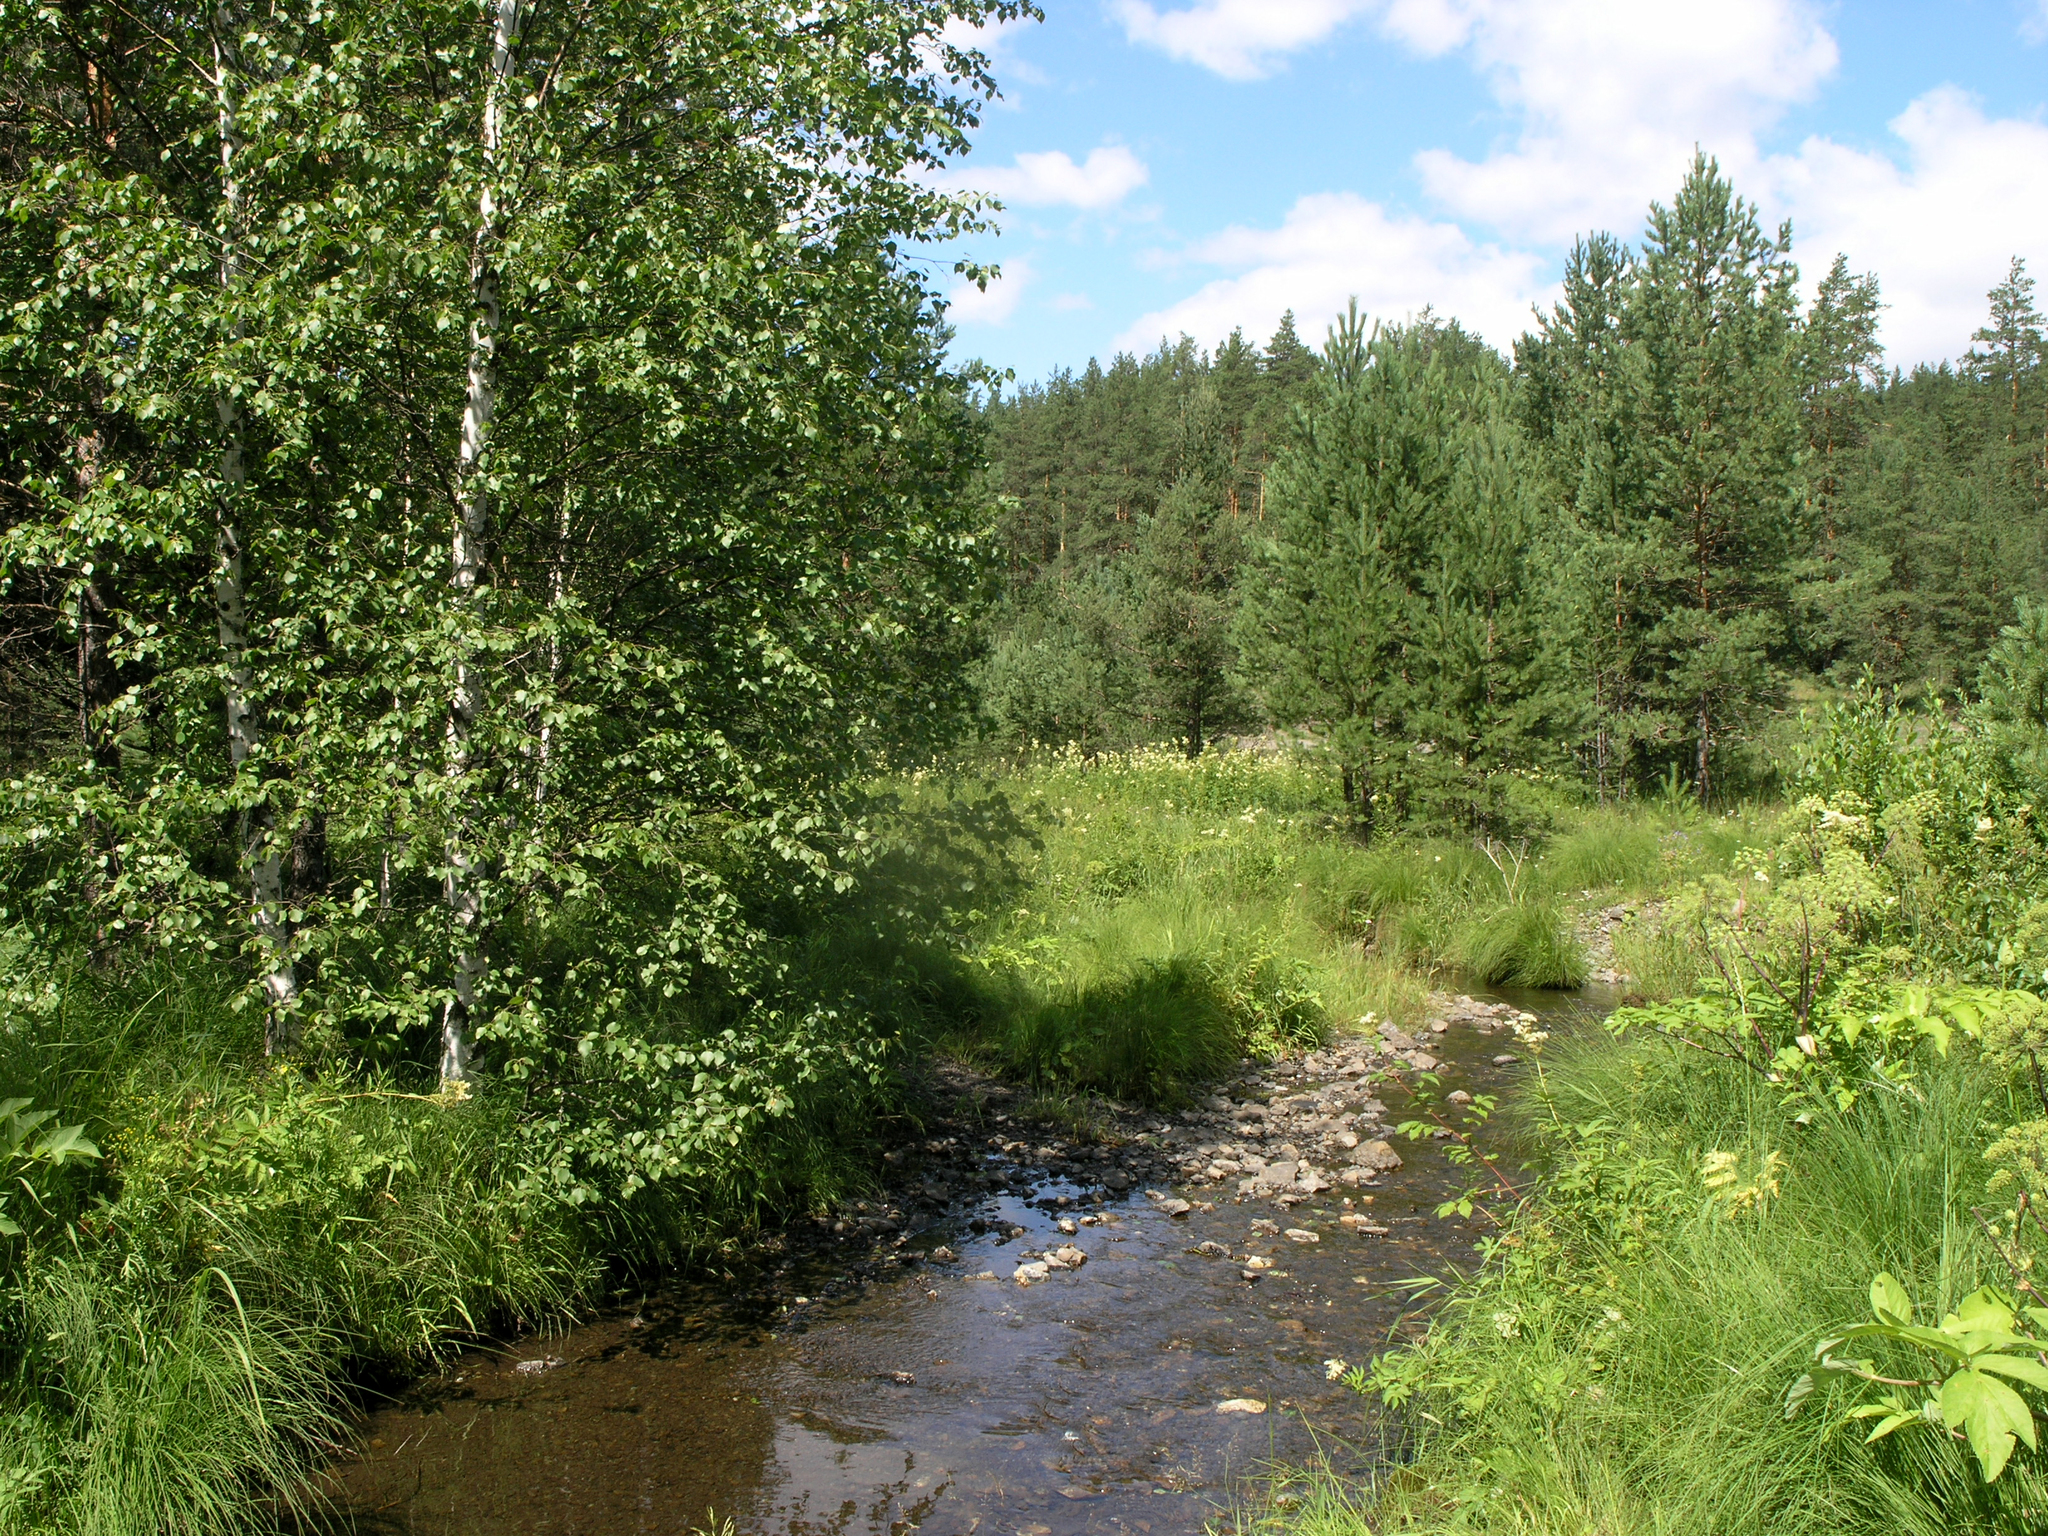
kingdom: Plantae
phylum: Tracheophyta
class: Magnoliopsida
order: Fagales
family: Betulaceae
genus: Betula
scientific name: Betula pendula
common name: Silver birch
